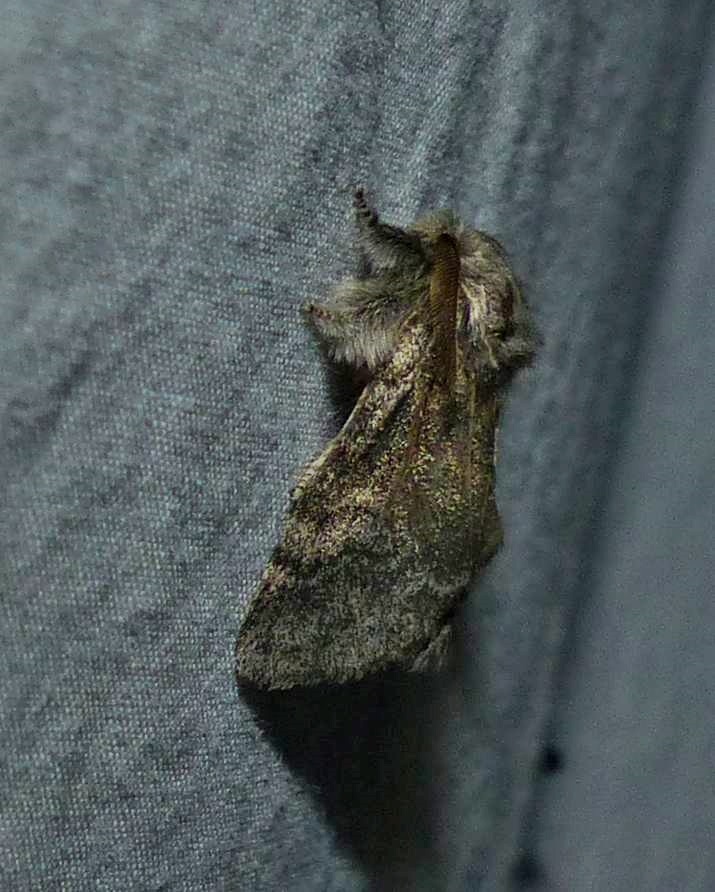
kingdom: Animalia
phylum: Arthropoda
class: Insecta
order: Lepidoptera
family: Notodontidae
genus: Gluphisia
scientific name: Gluphisia septentrionis
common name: Common gluphisia
